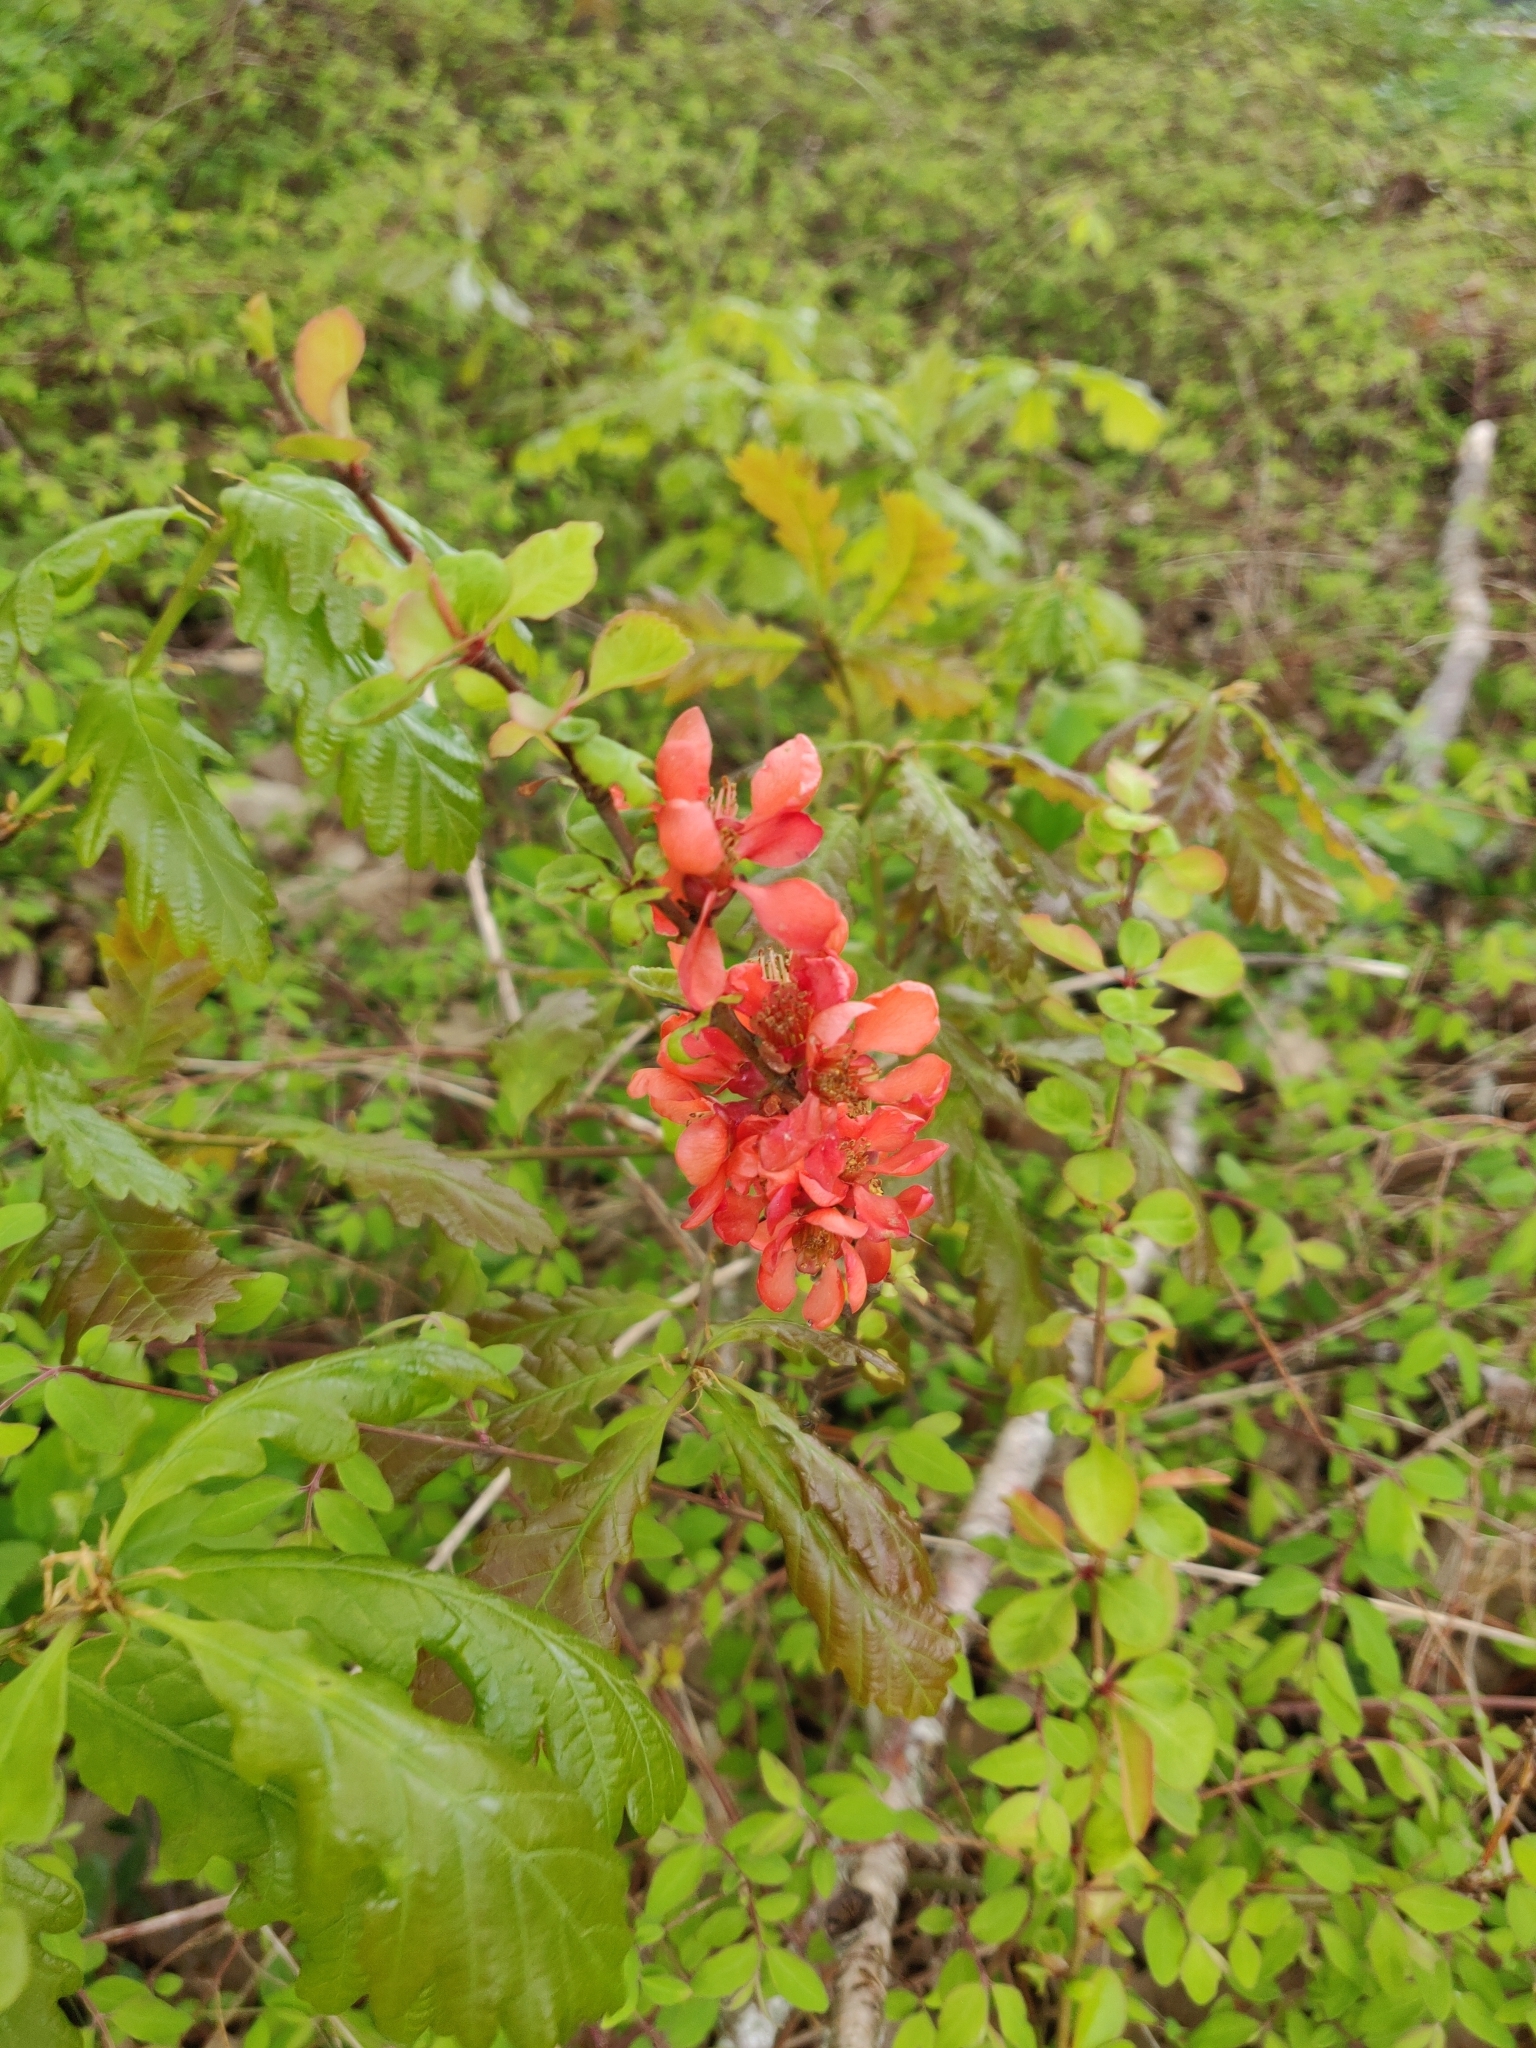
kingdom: Plantae
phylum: Tracheophyta
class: Magnoliopsida
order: Rosales
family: Rosaceae
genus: Chaenomeles
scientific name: Chaenomeles japonica
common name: Japanese quince
